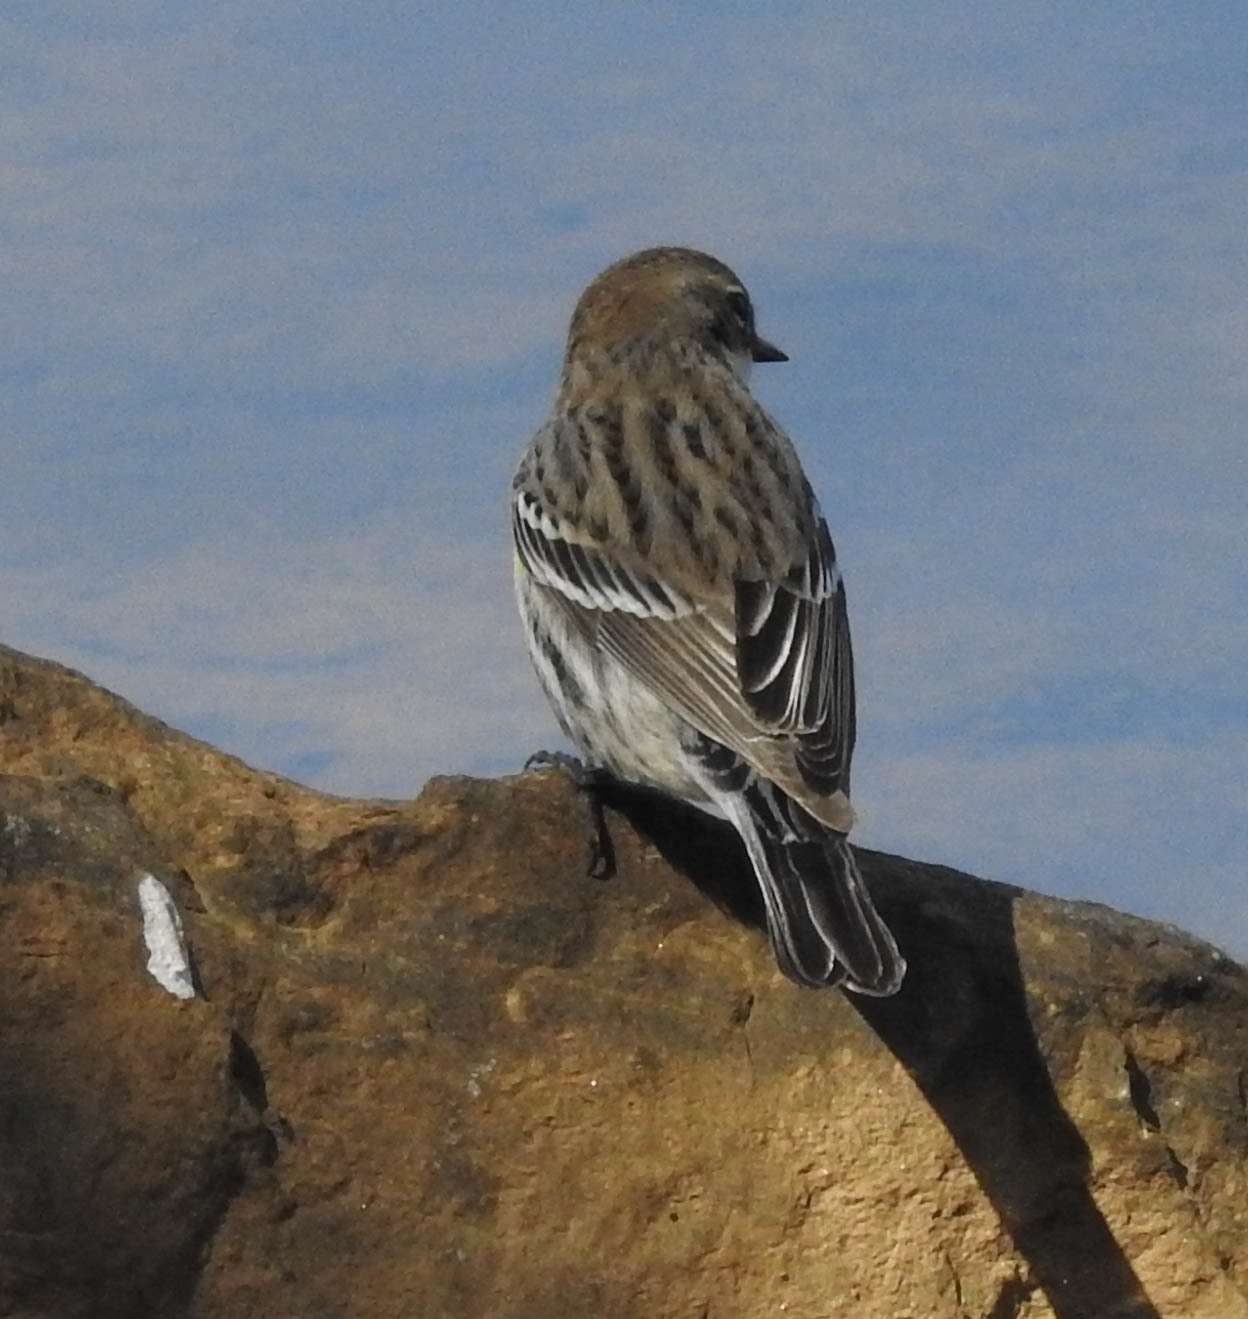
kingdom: Animalia
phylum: Chordata
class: Aves
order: Passeriformes
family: Parulidae
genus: Setophaga
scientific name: Setophaga coronata
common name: Myrtle warbler
